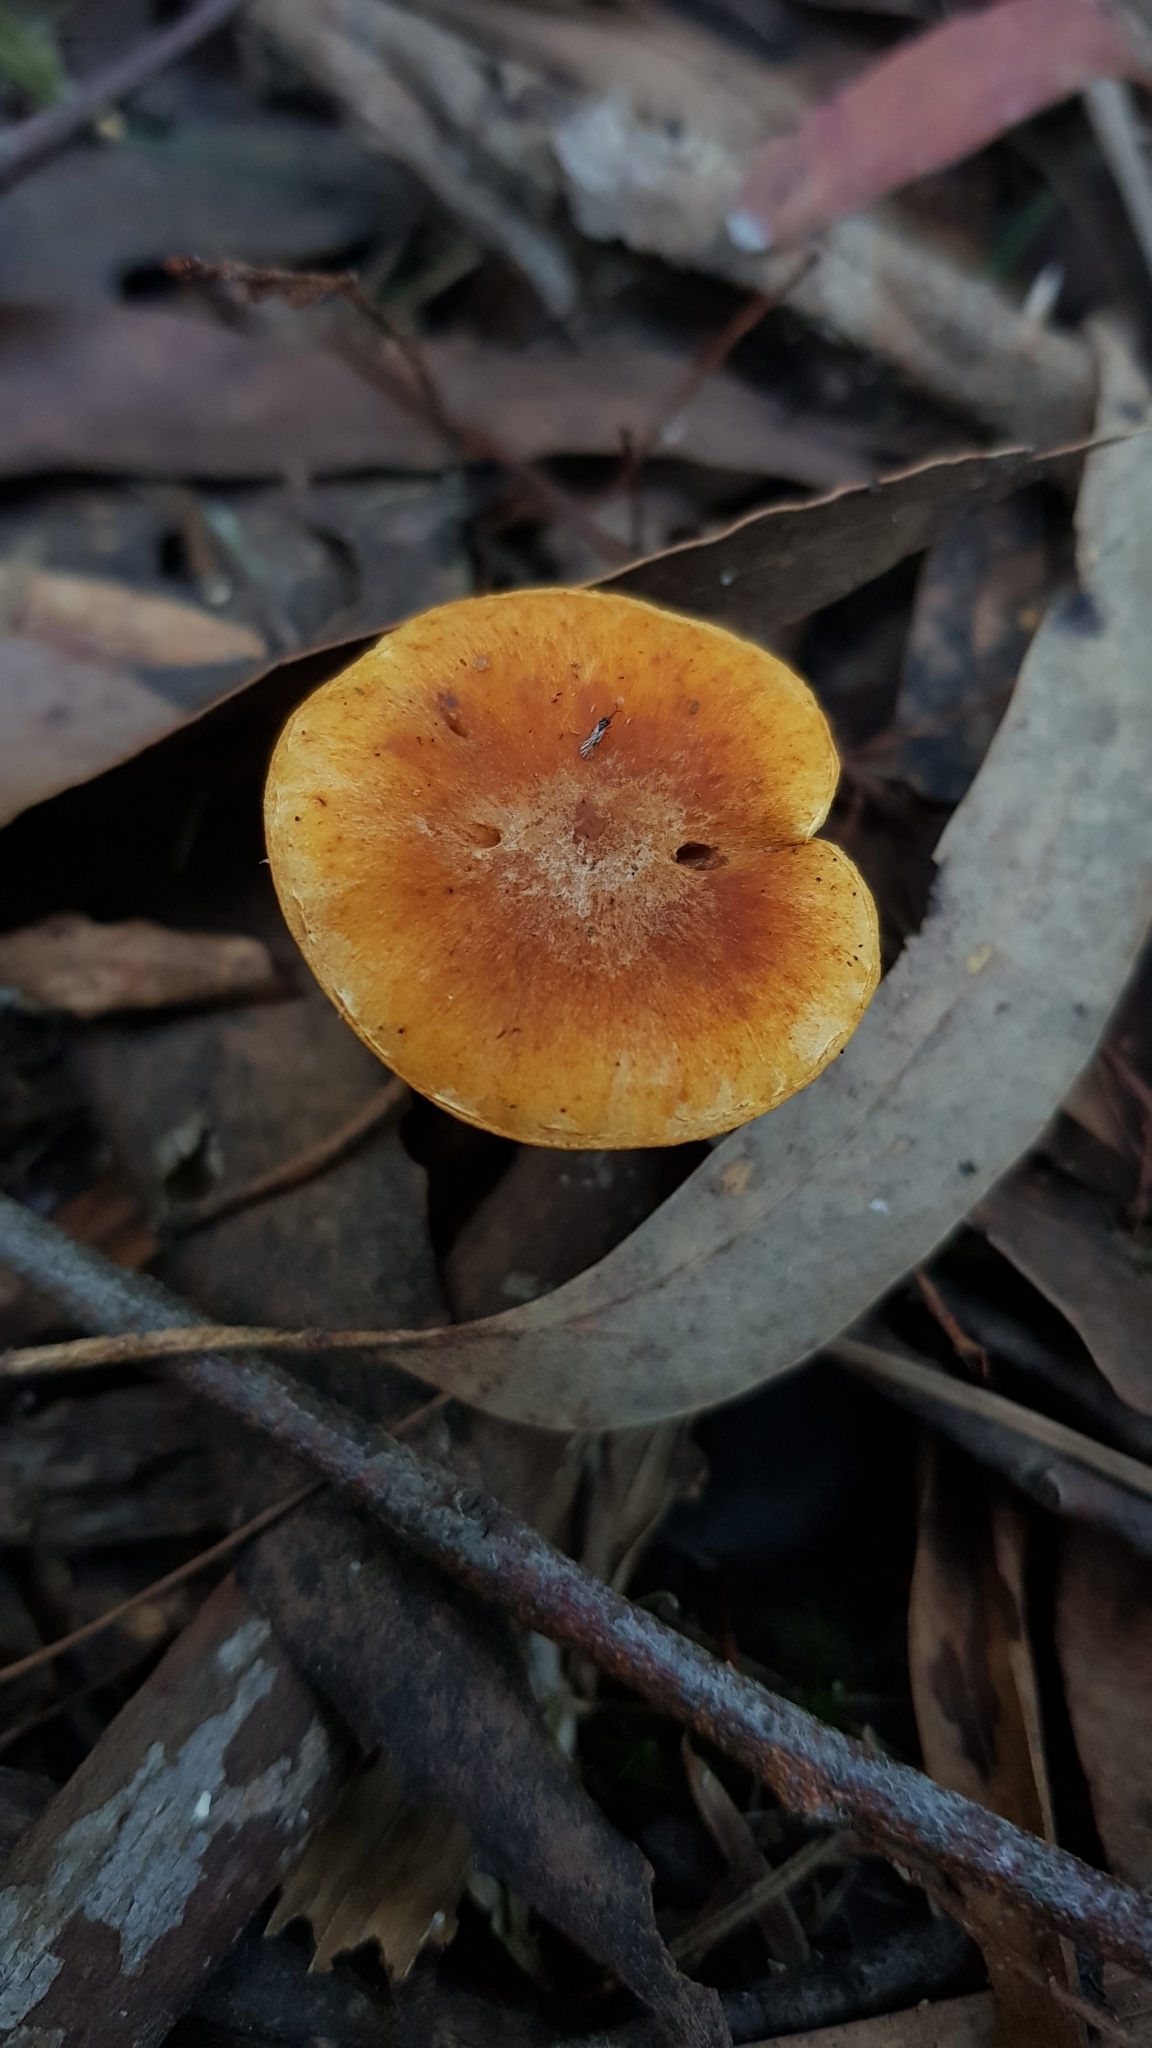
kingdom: Fungi
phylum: Basidiomycota
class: Agaricomycetes
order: Agaricales
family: Hymenogastraceae
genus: Gymnopilus
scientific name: Gymnopilus allantopus
